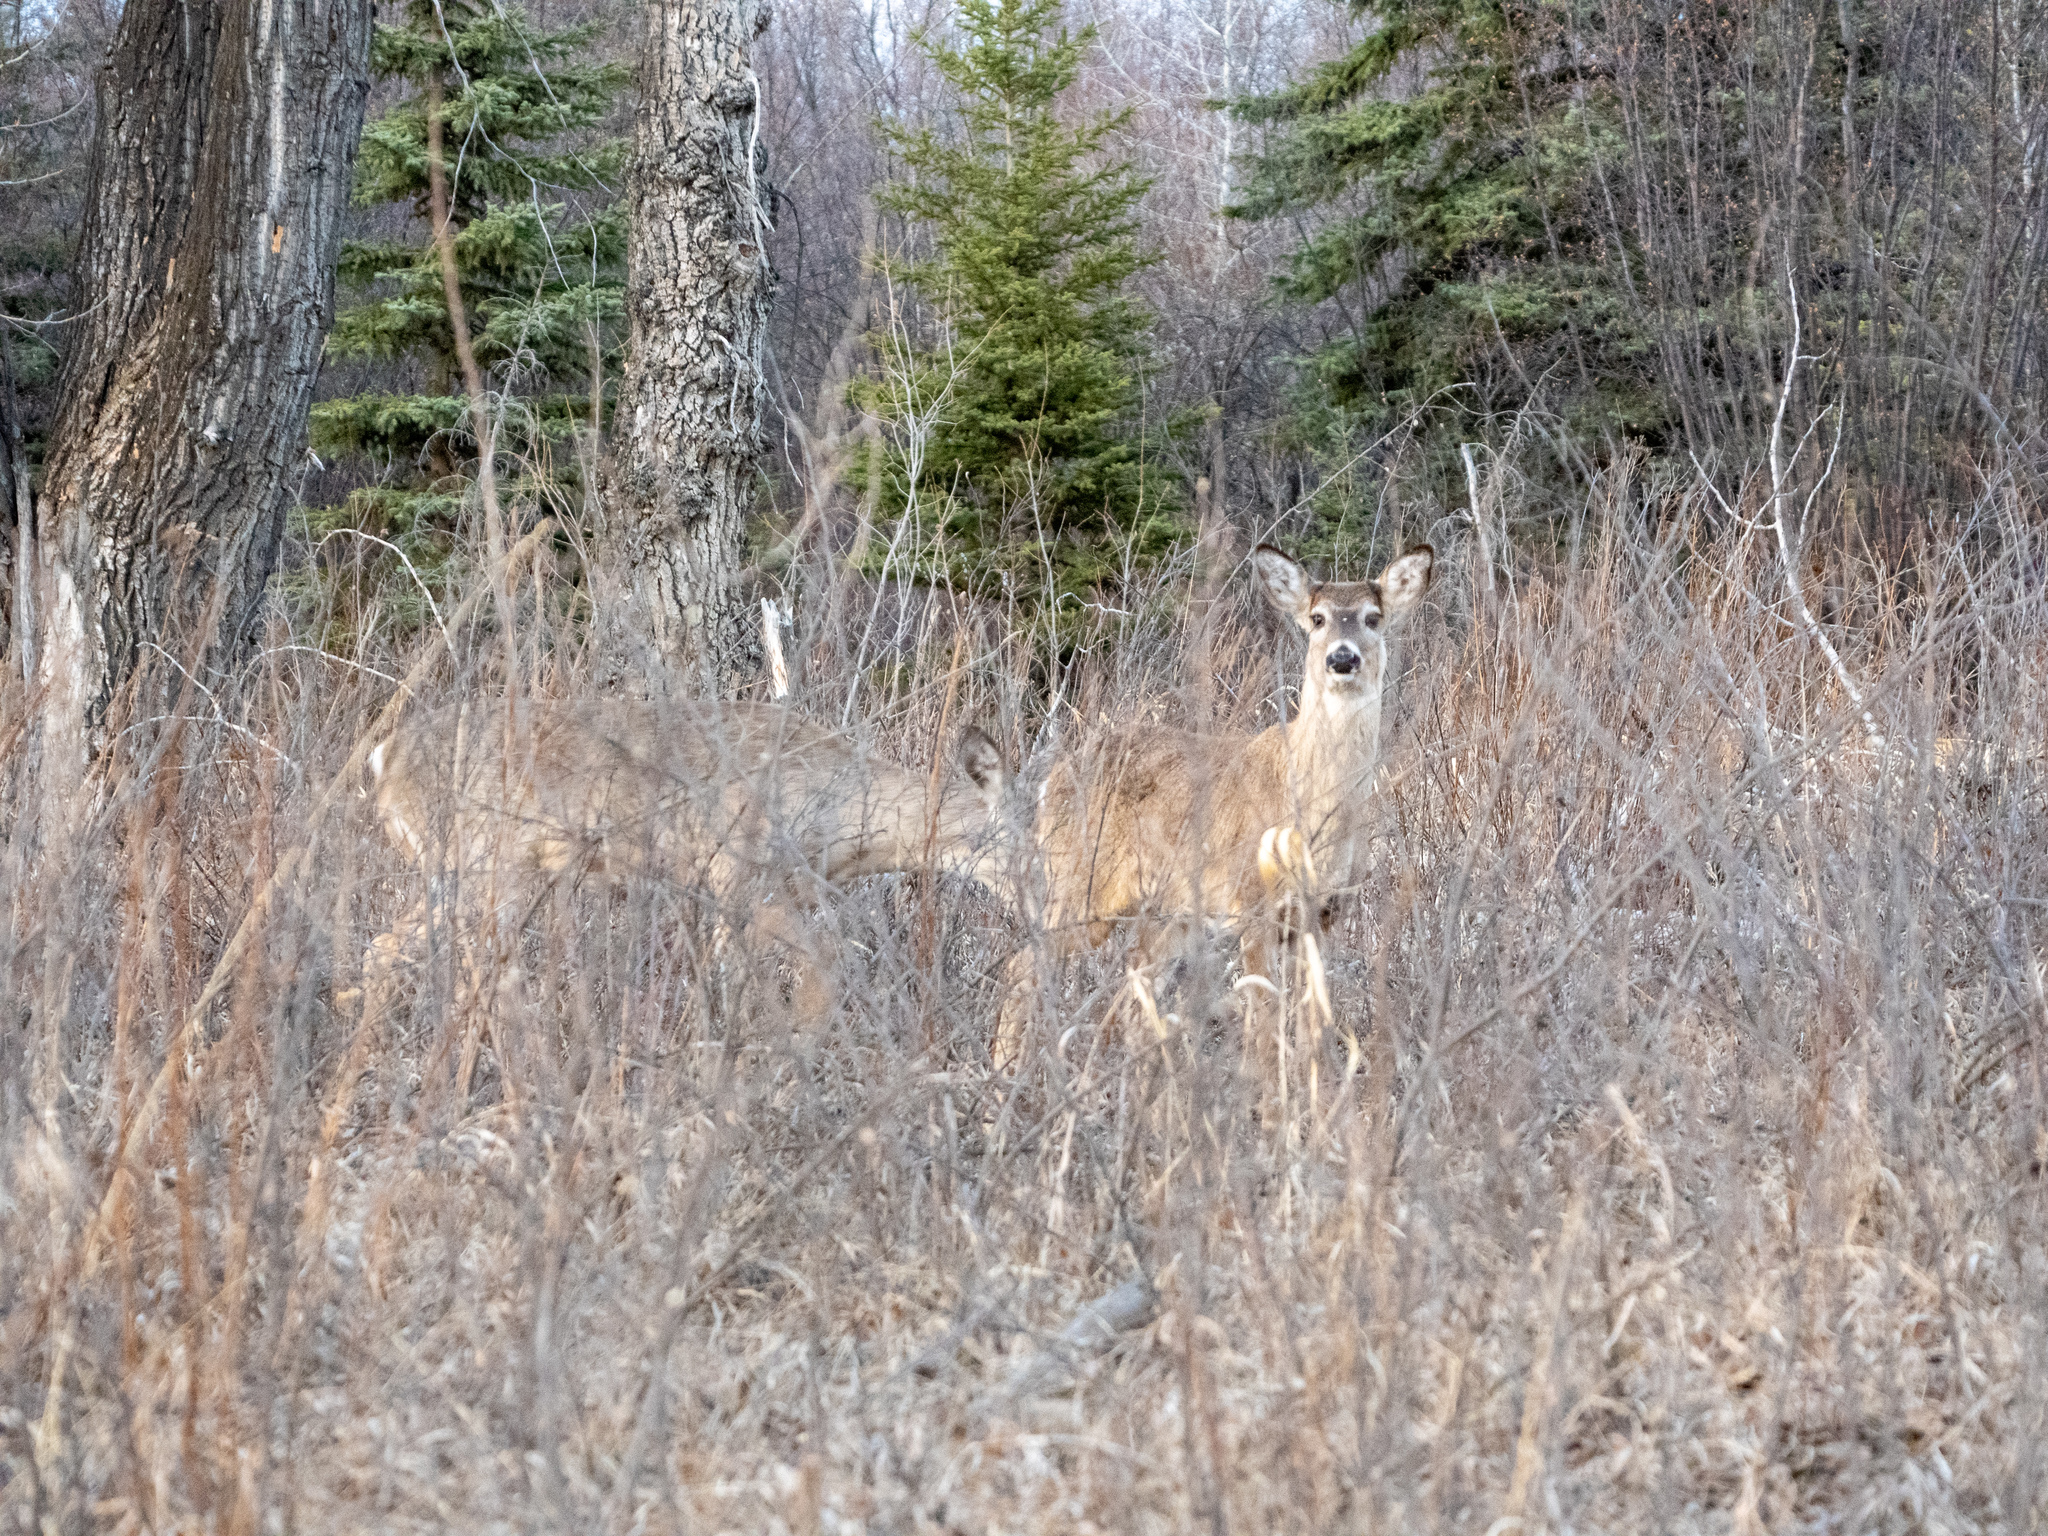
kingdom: Animalia
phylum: Chordata
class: Mammalia
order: Artiodactyla
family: Cervidae
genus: Odocoileus
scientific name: Odocoileus virginianus
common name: White-tailed deer
